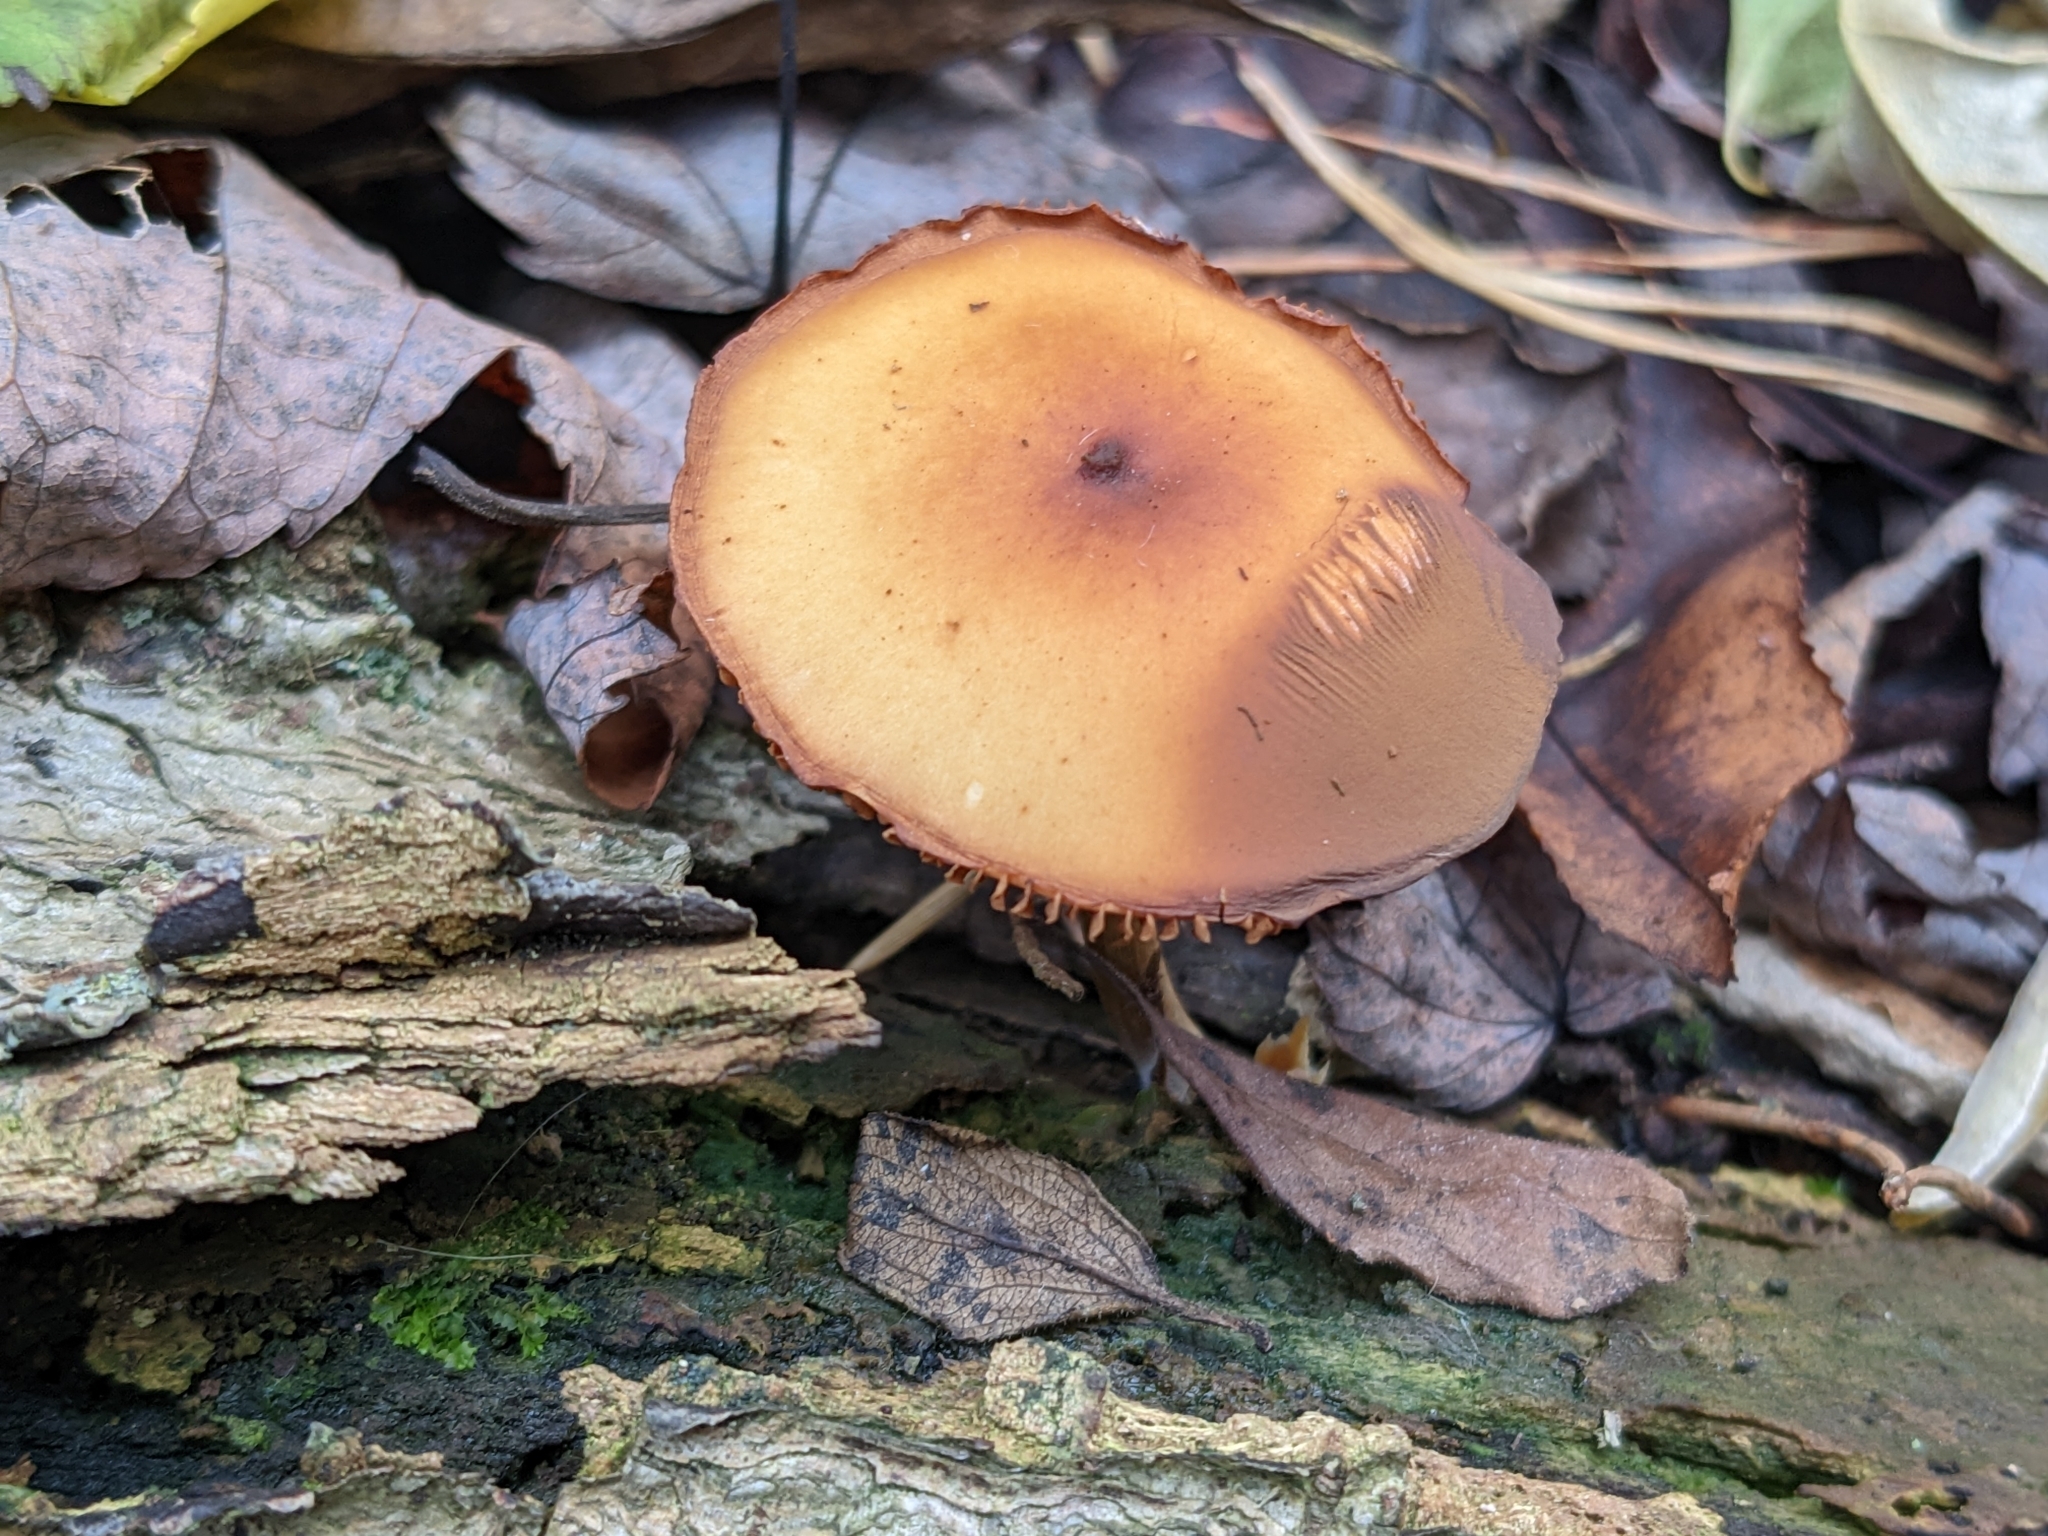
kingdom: Fungi
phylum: Basidiomycota
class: Agaricomycetes
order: Agaricales
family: Hymenogastraceae
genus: Galerina
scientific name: Galerina marginata
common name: Funeral bell
